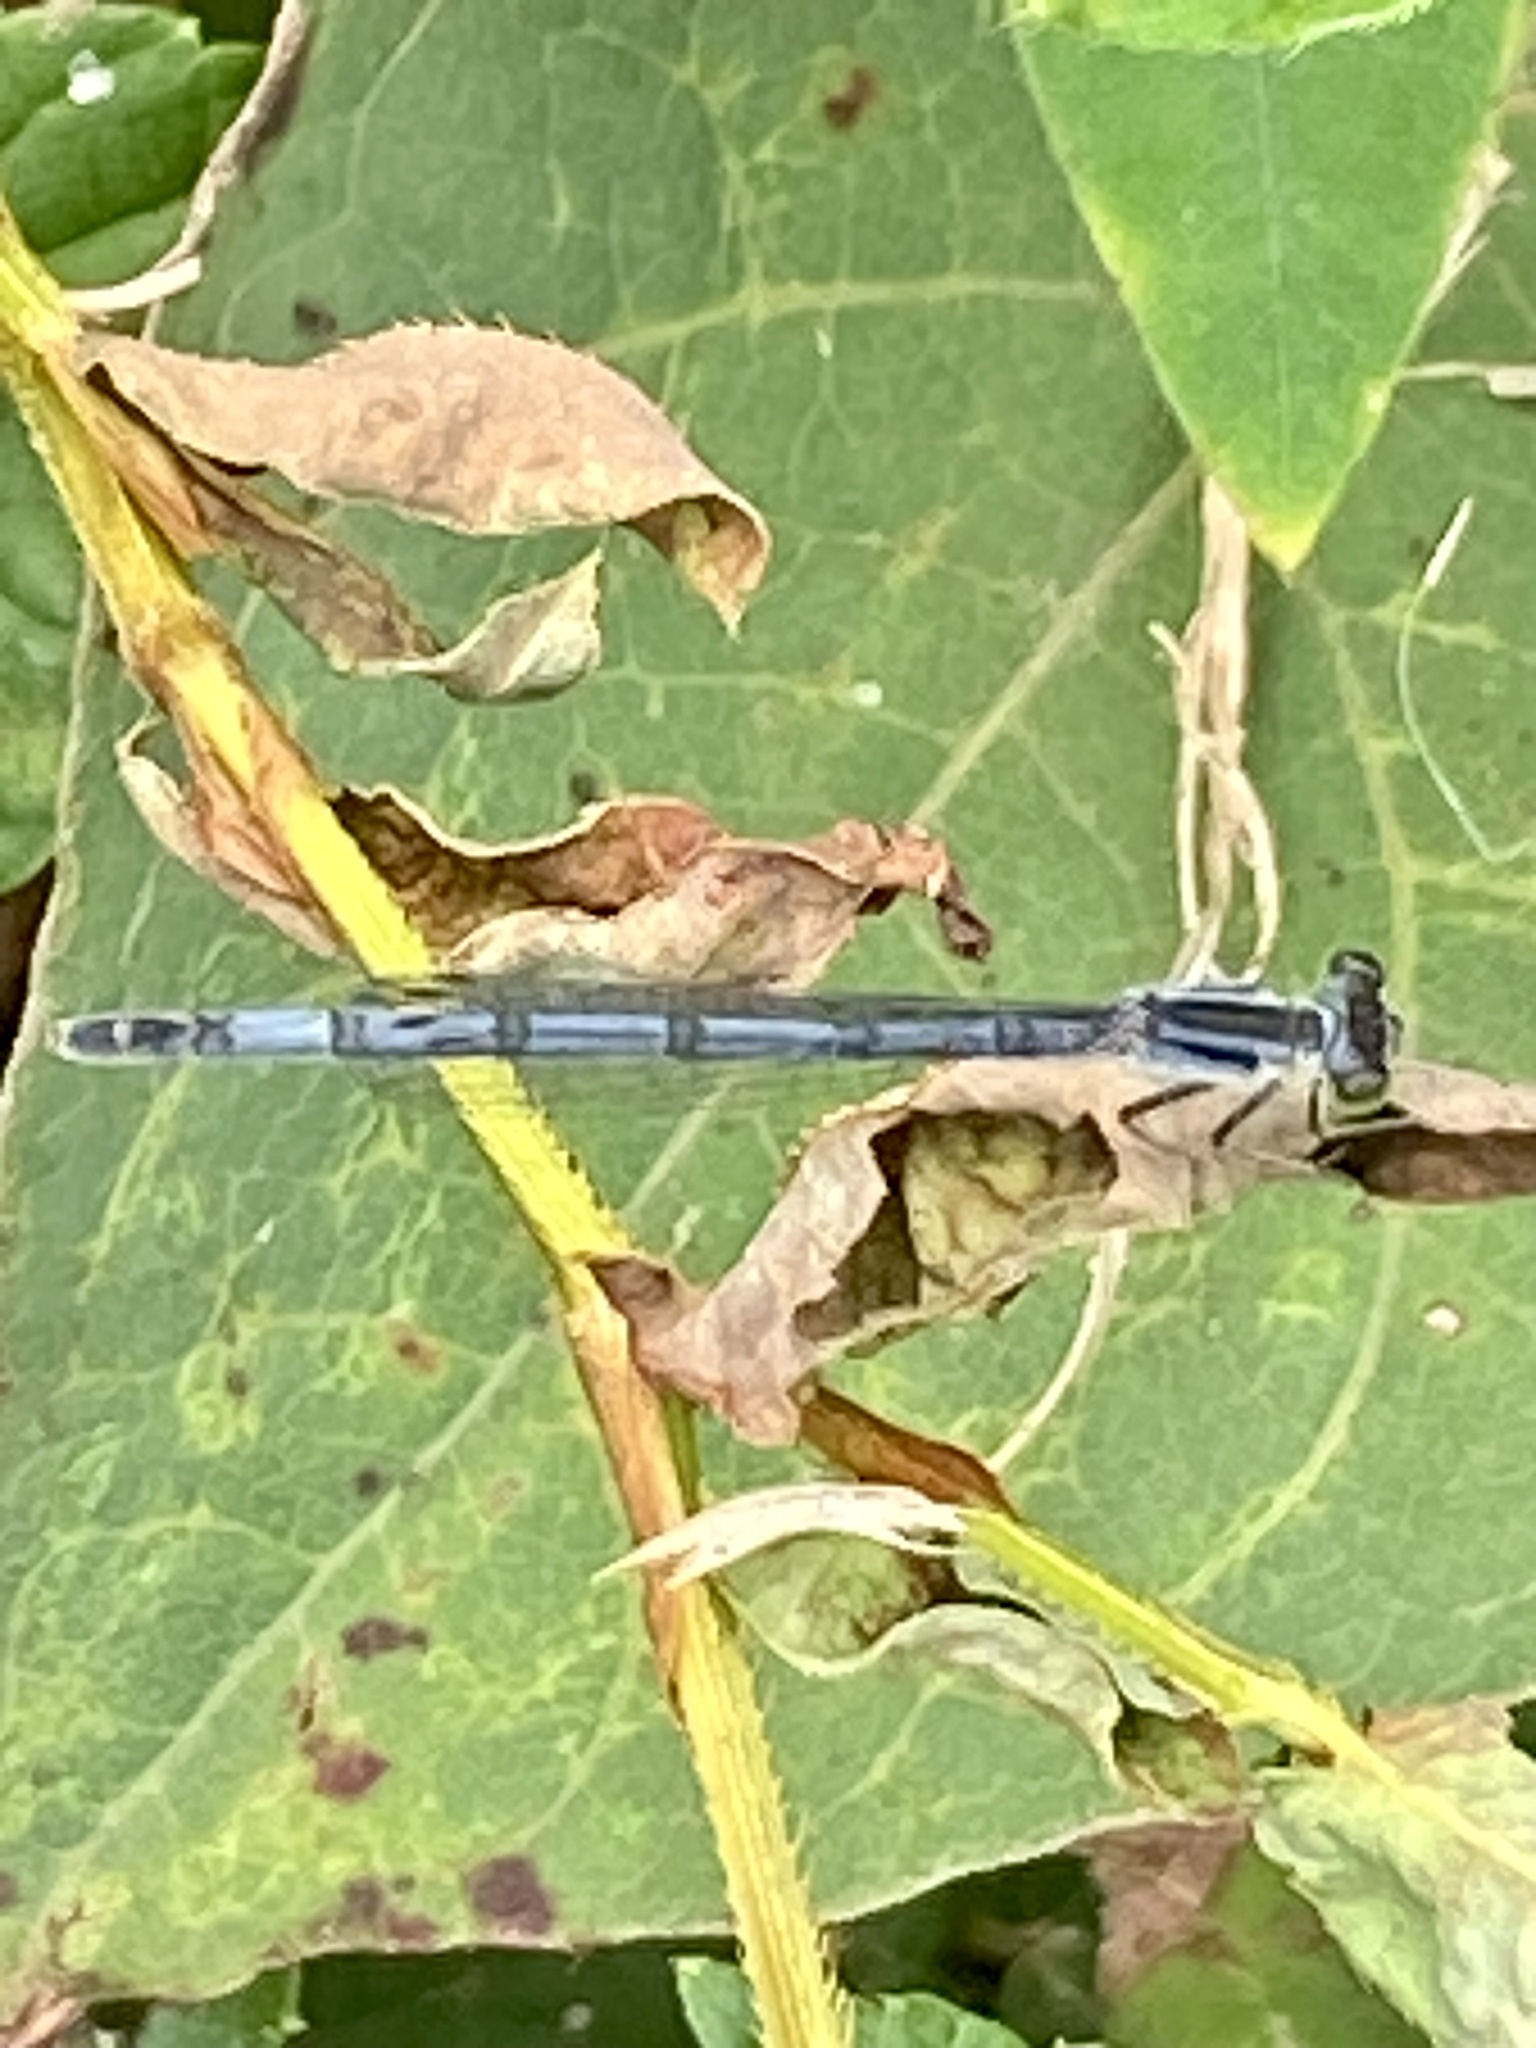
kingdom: Animalia
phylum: Arthropoda
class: Insecta
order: Odonata
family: Coenagrionidae
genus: Ischnura
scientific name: Ischnura verticalis
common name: Eastern forktail
